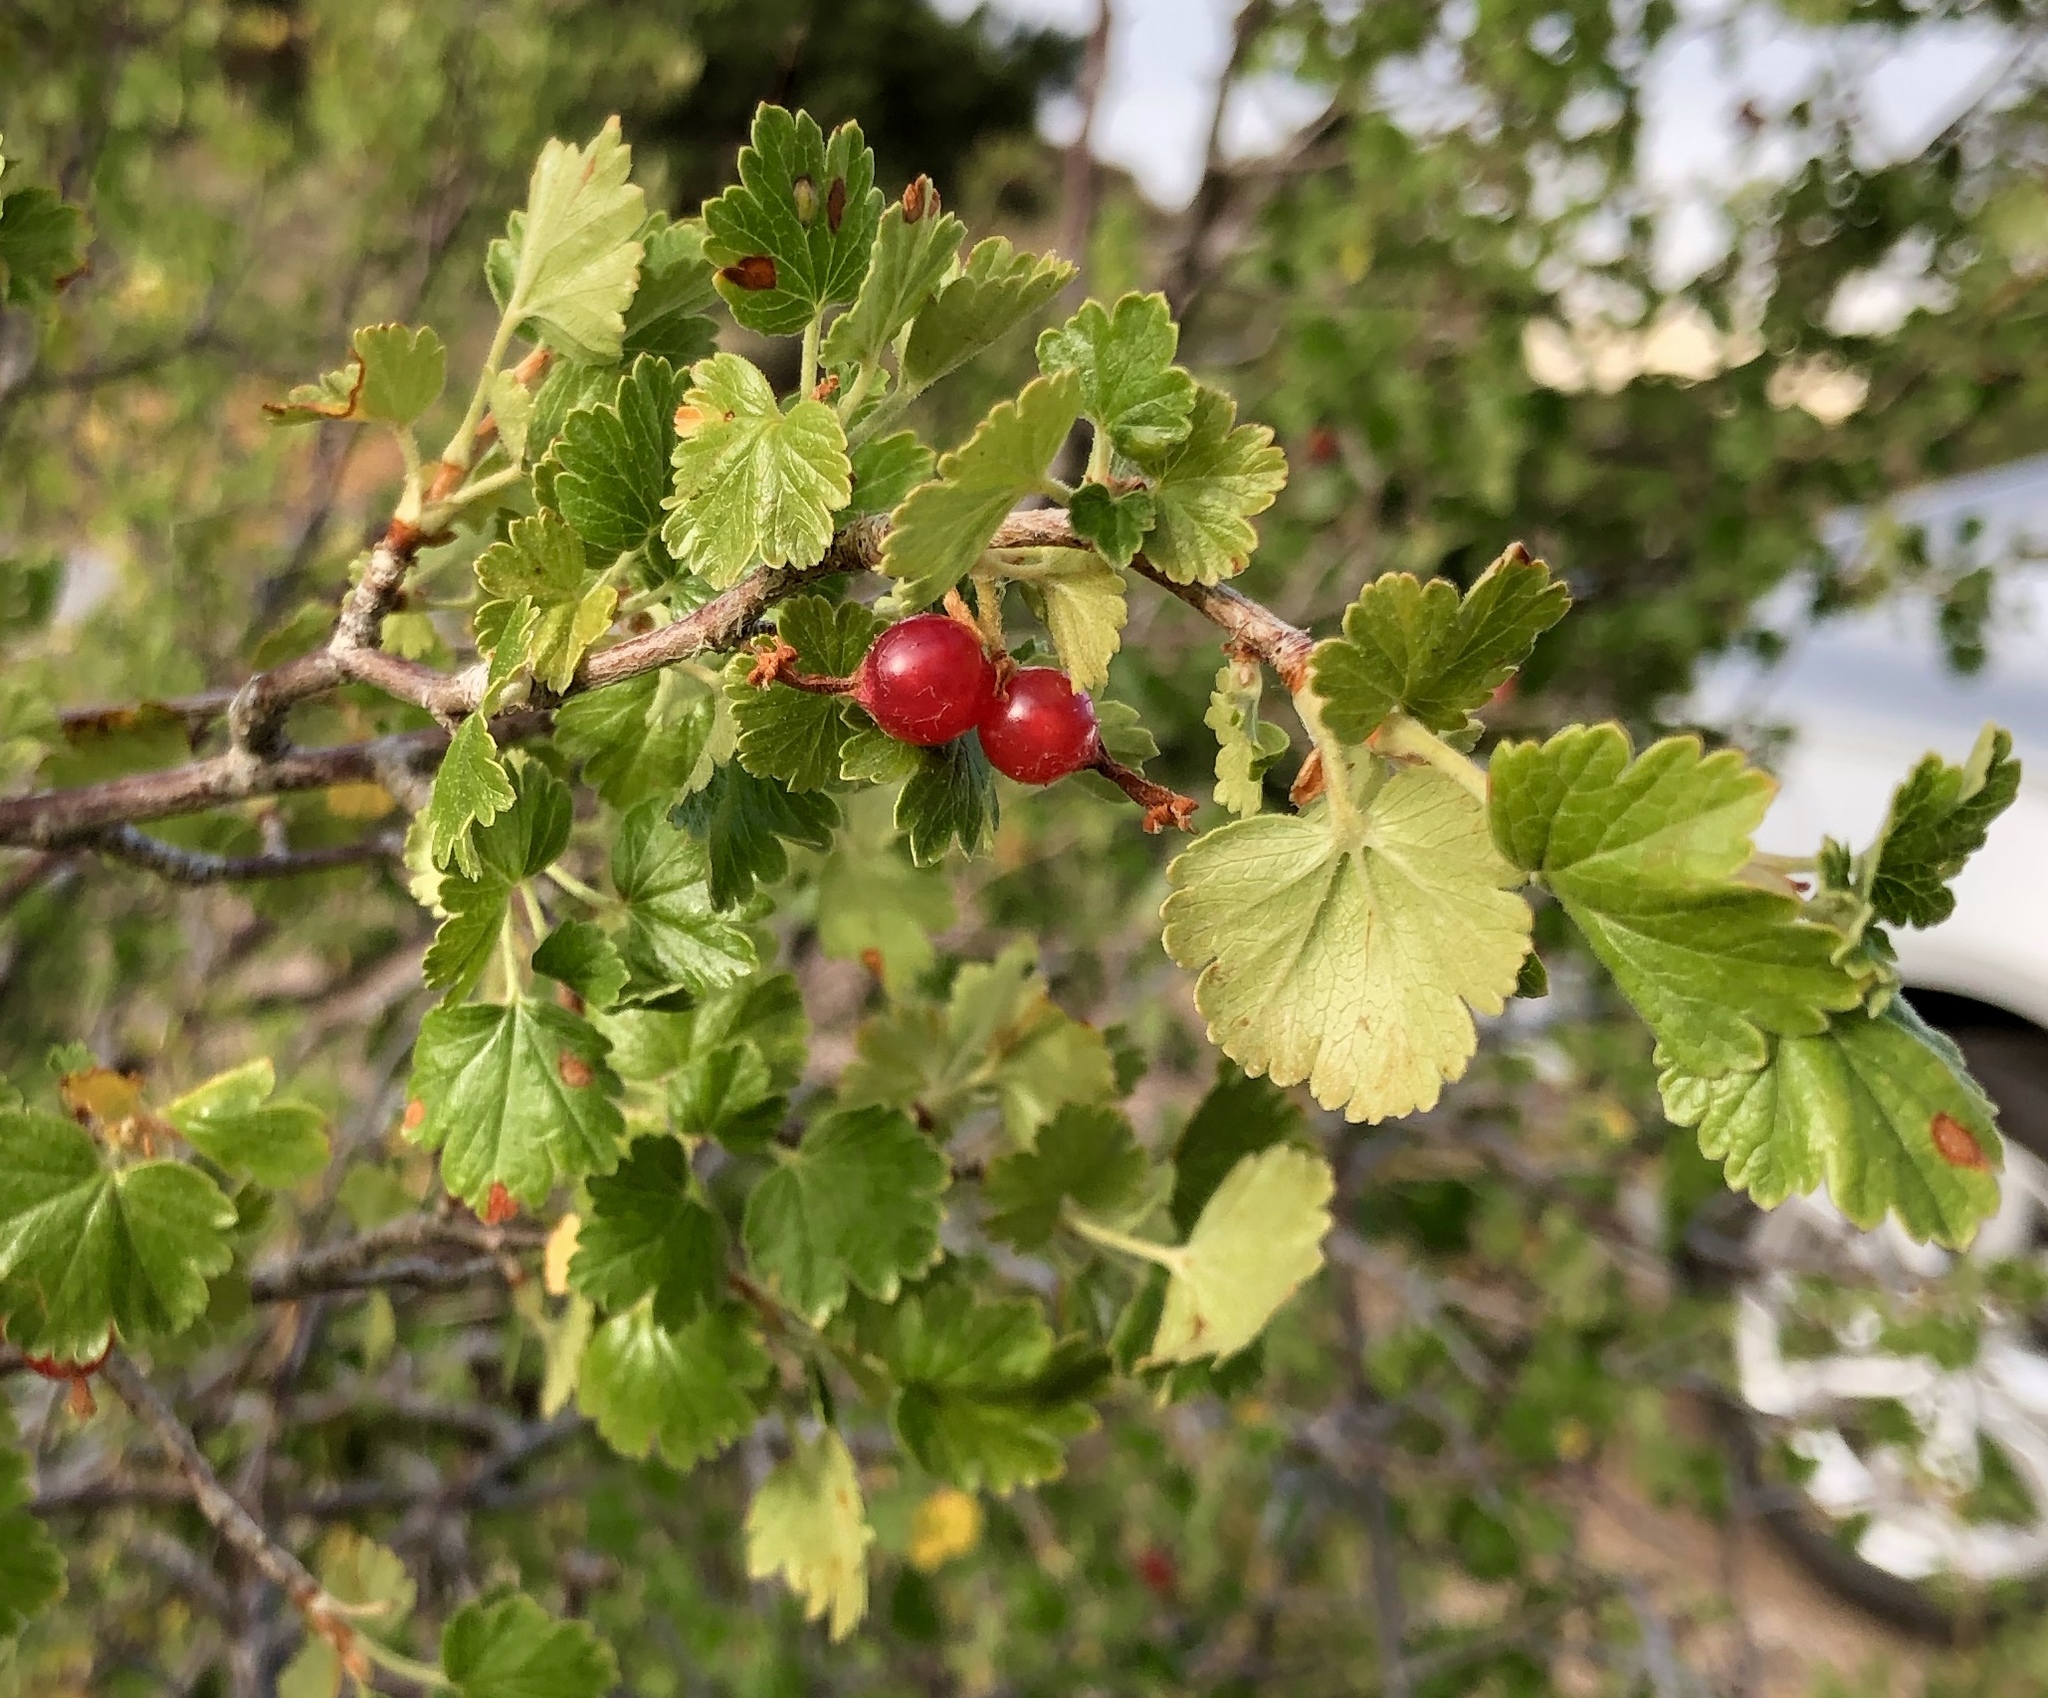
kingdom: Plantae
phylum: Tracheophyta
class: Magnoliopsida
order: Saxifragales
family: Grossulariaceae
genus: Ribes
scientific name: Ribes cereum
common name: Wax currant
